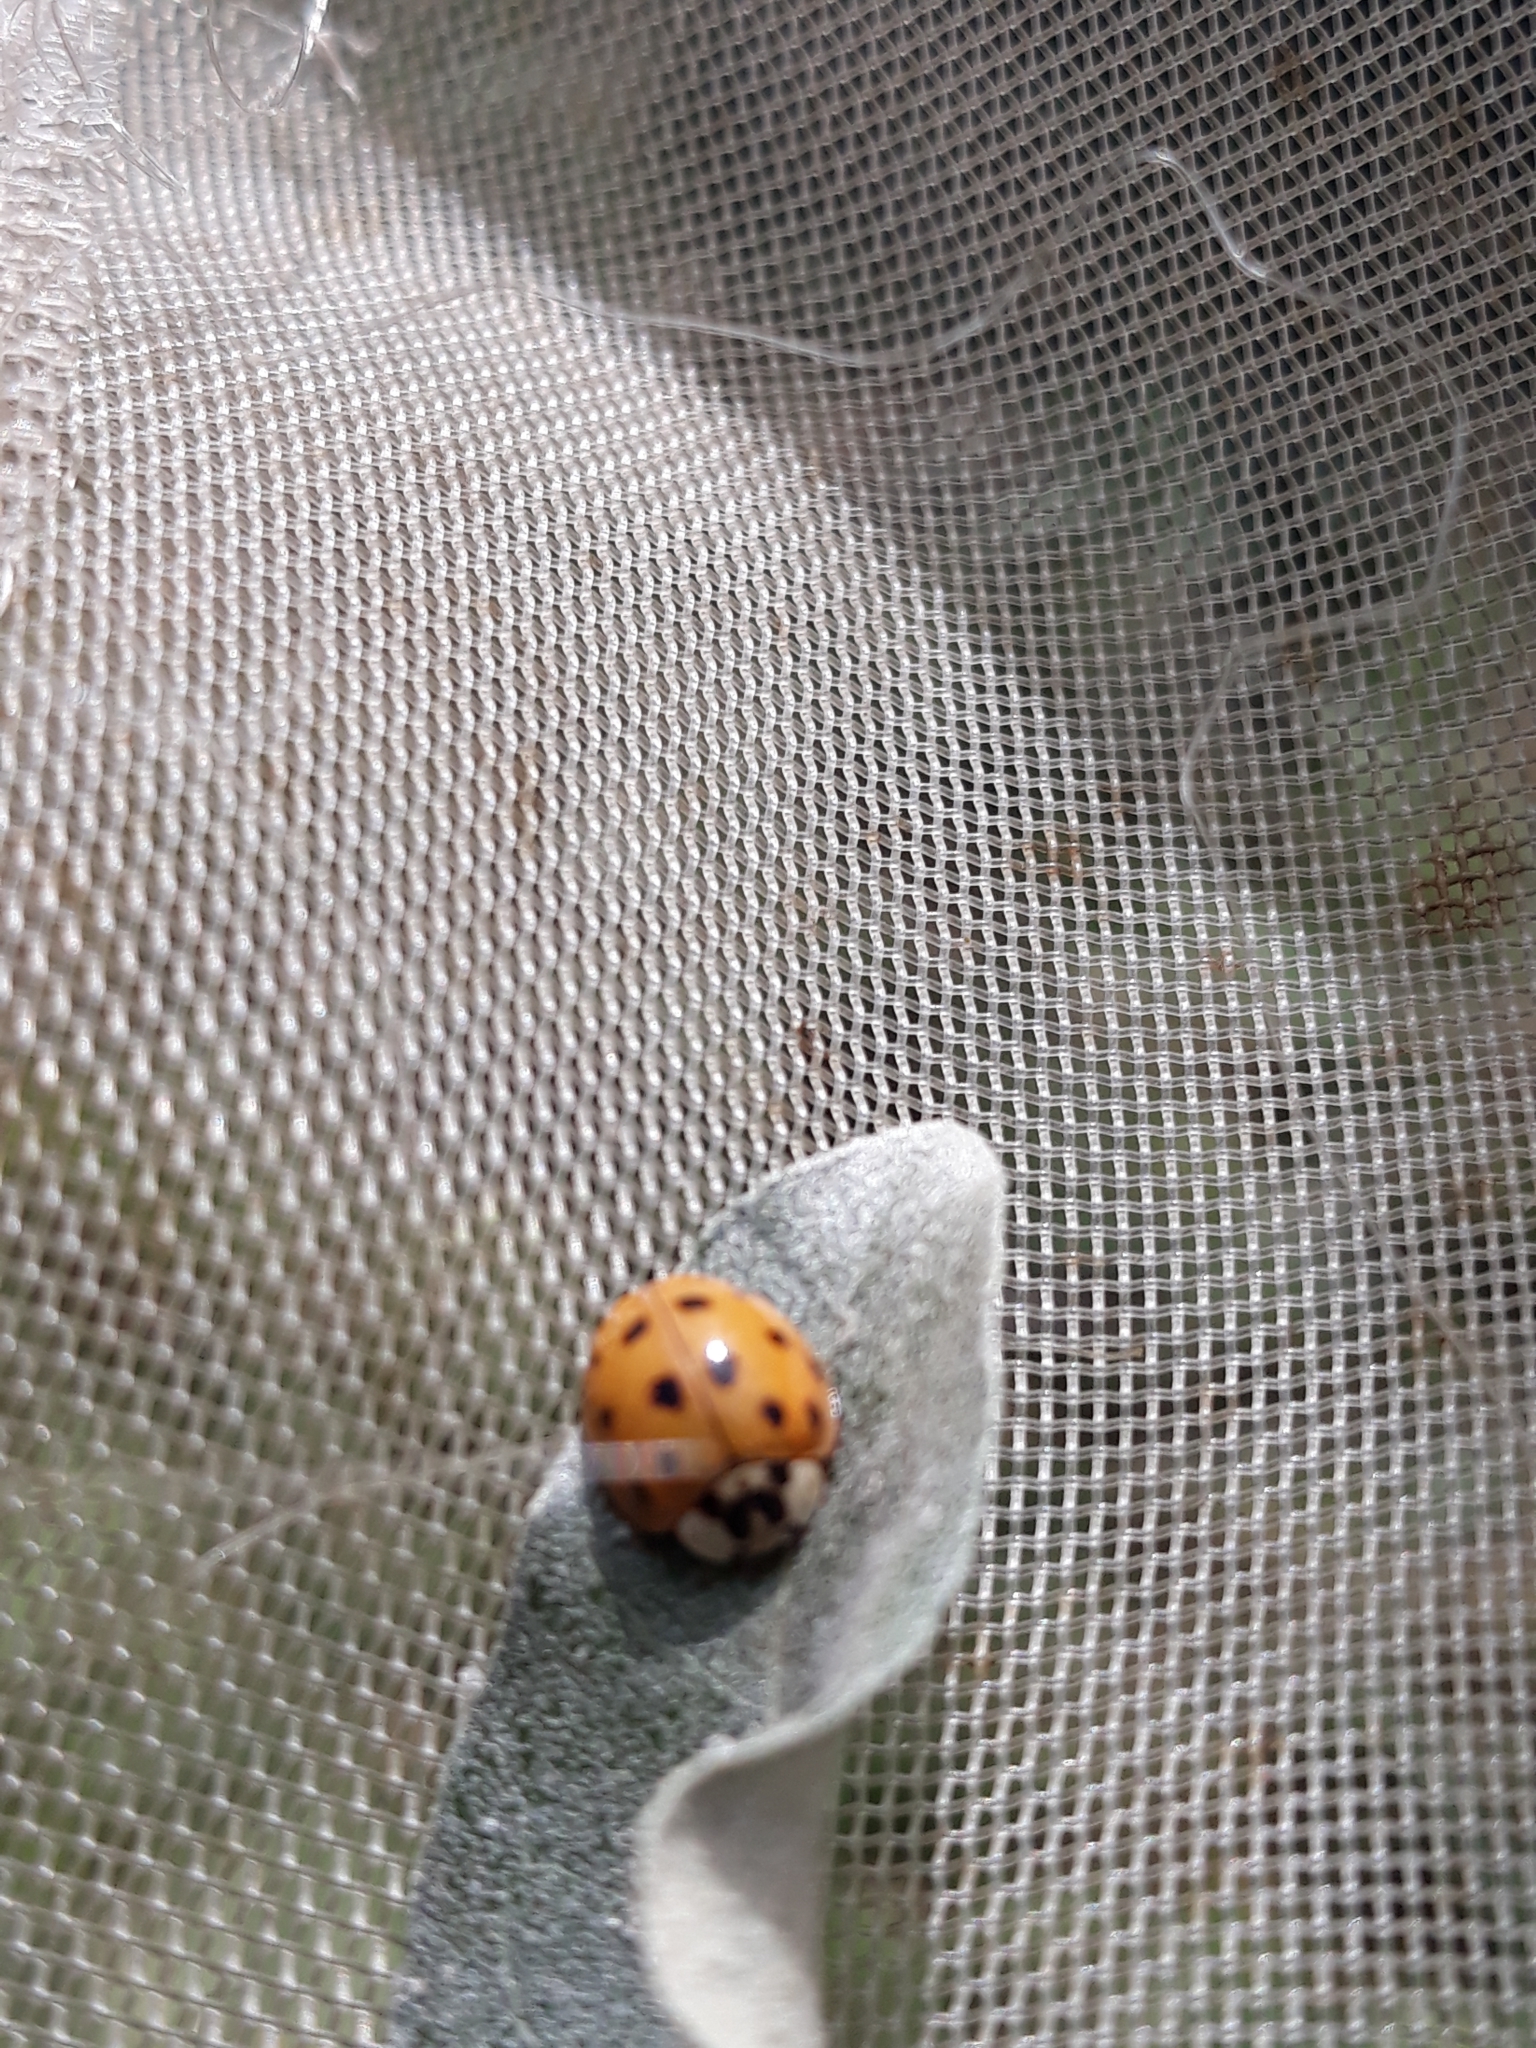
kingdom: Animalia
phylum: Arthropoda
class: Insecta
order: Coleoptera
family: Coccinellidae
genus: Harmonia
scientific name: Harmonia axyridis
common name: Harlequin ladybird
